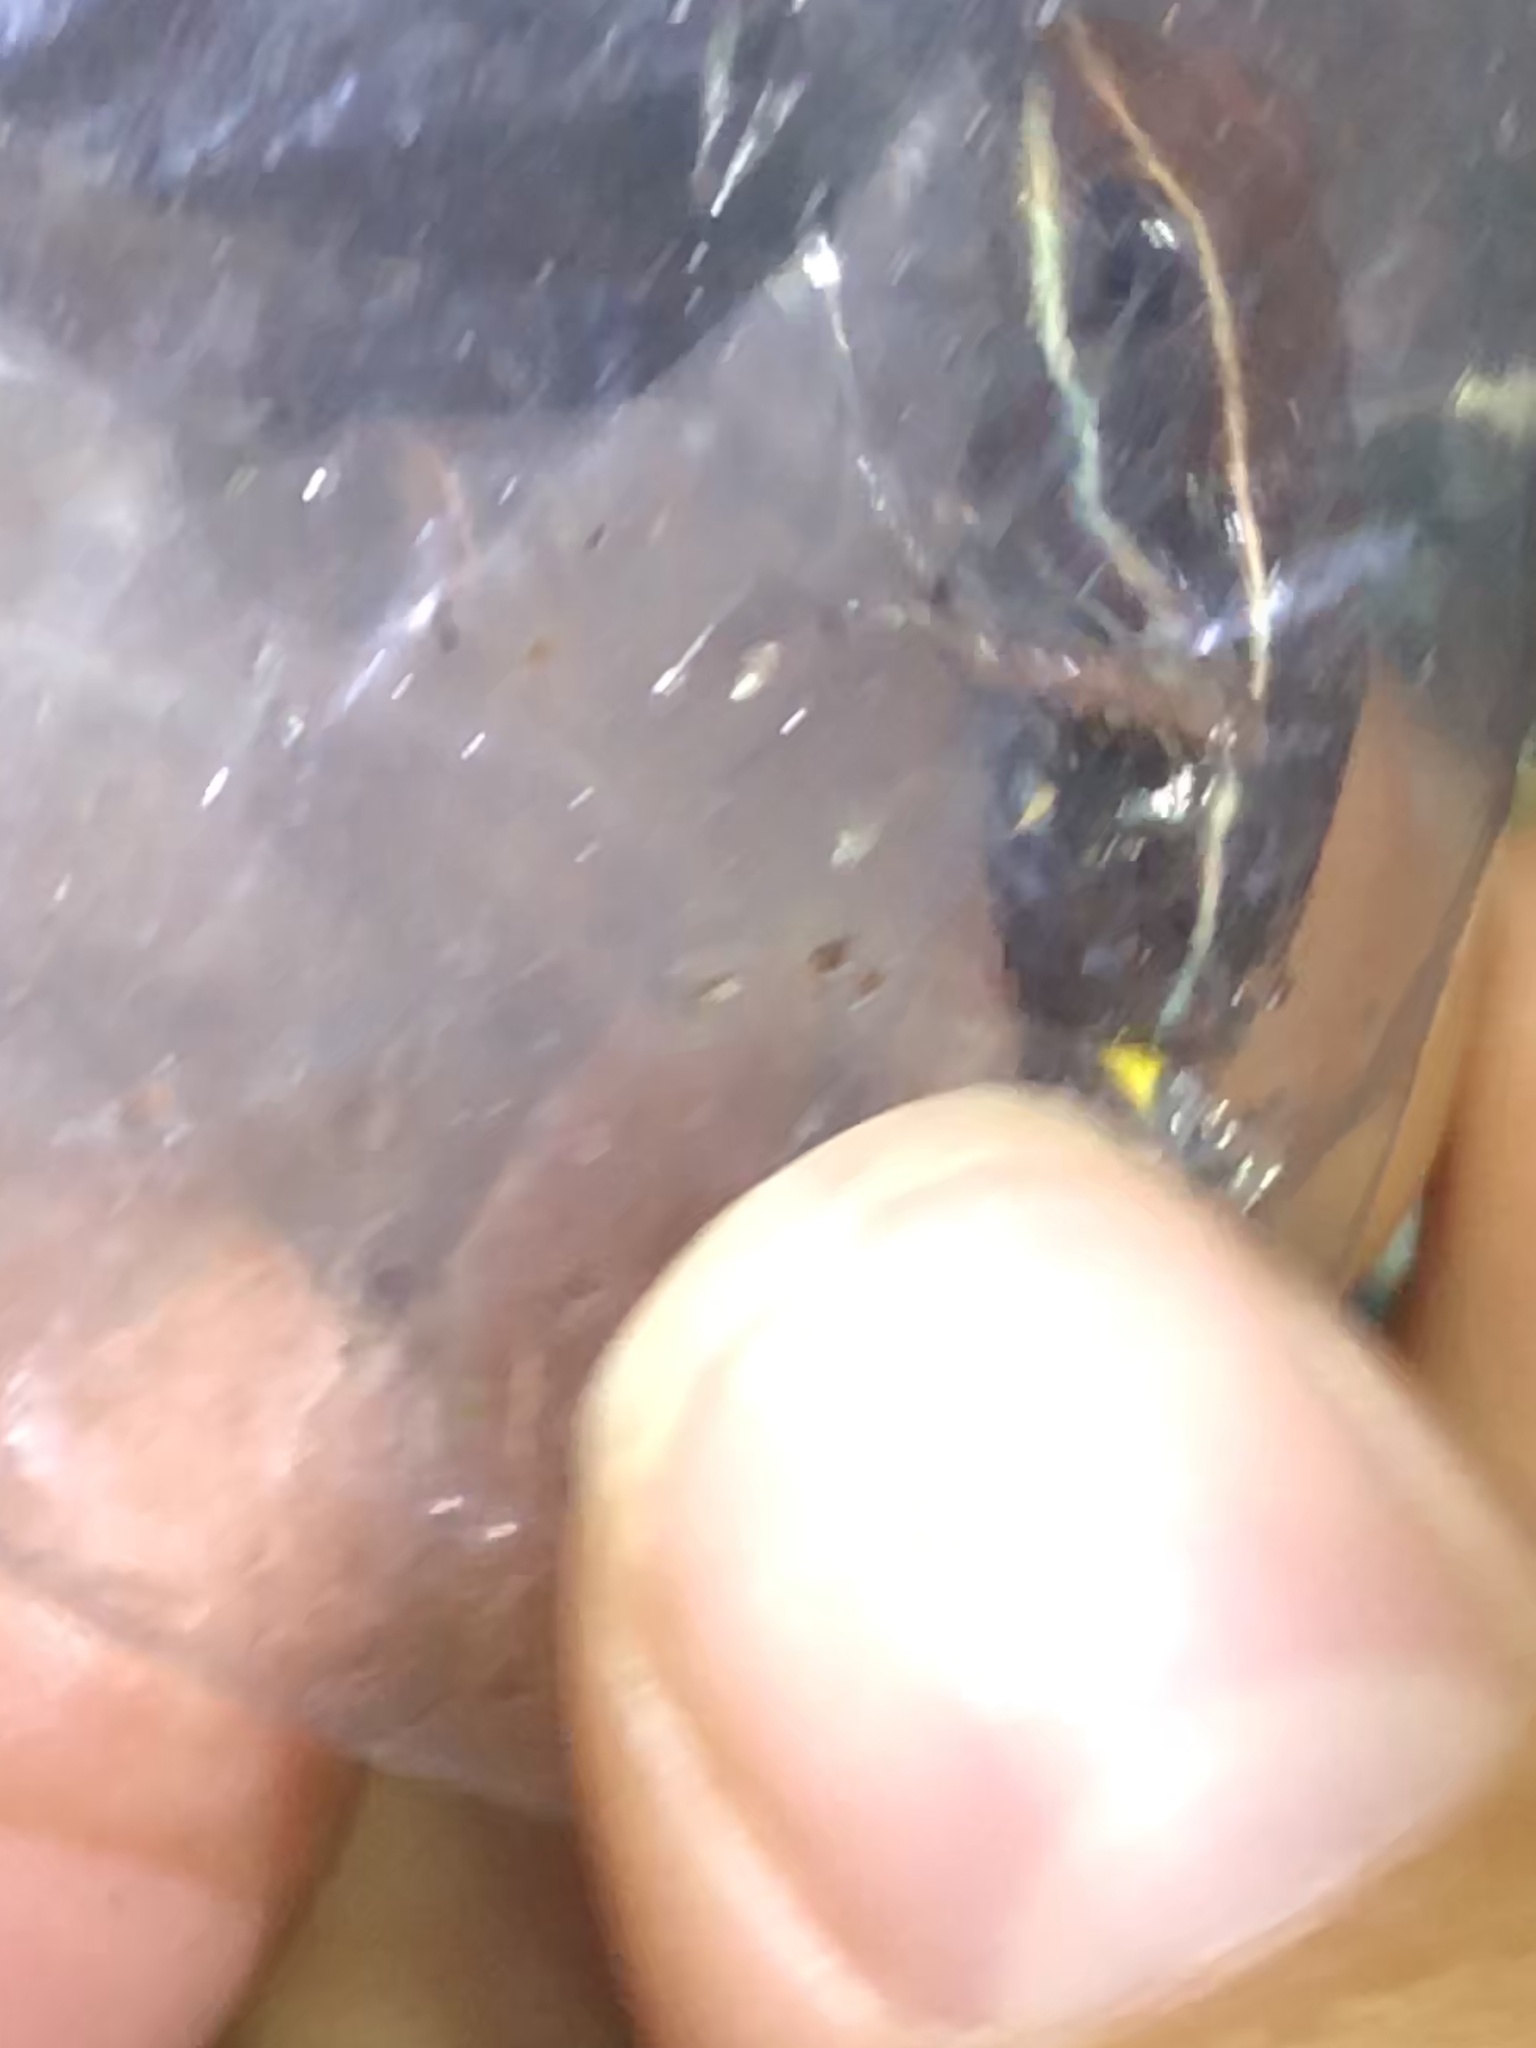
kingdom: Animalia
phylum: Chordata
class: Amphibia
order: Anura
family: Dendrobatidae
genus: Ameerega
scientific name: Ameerega hahneli
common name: Yurimaguas pioson frog
